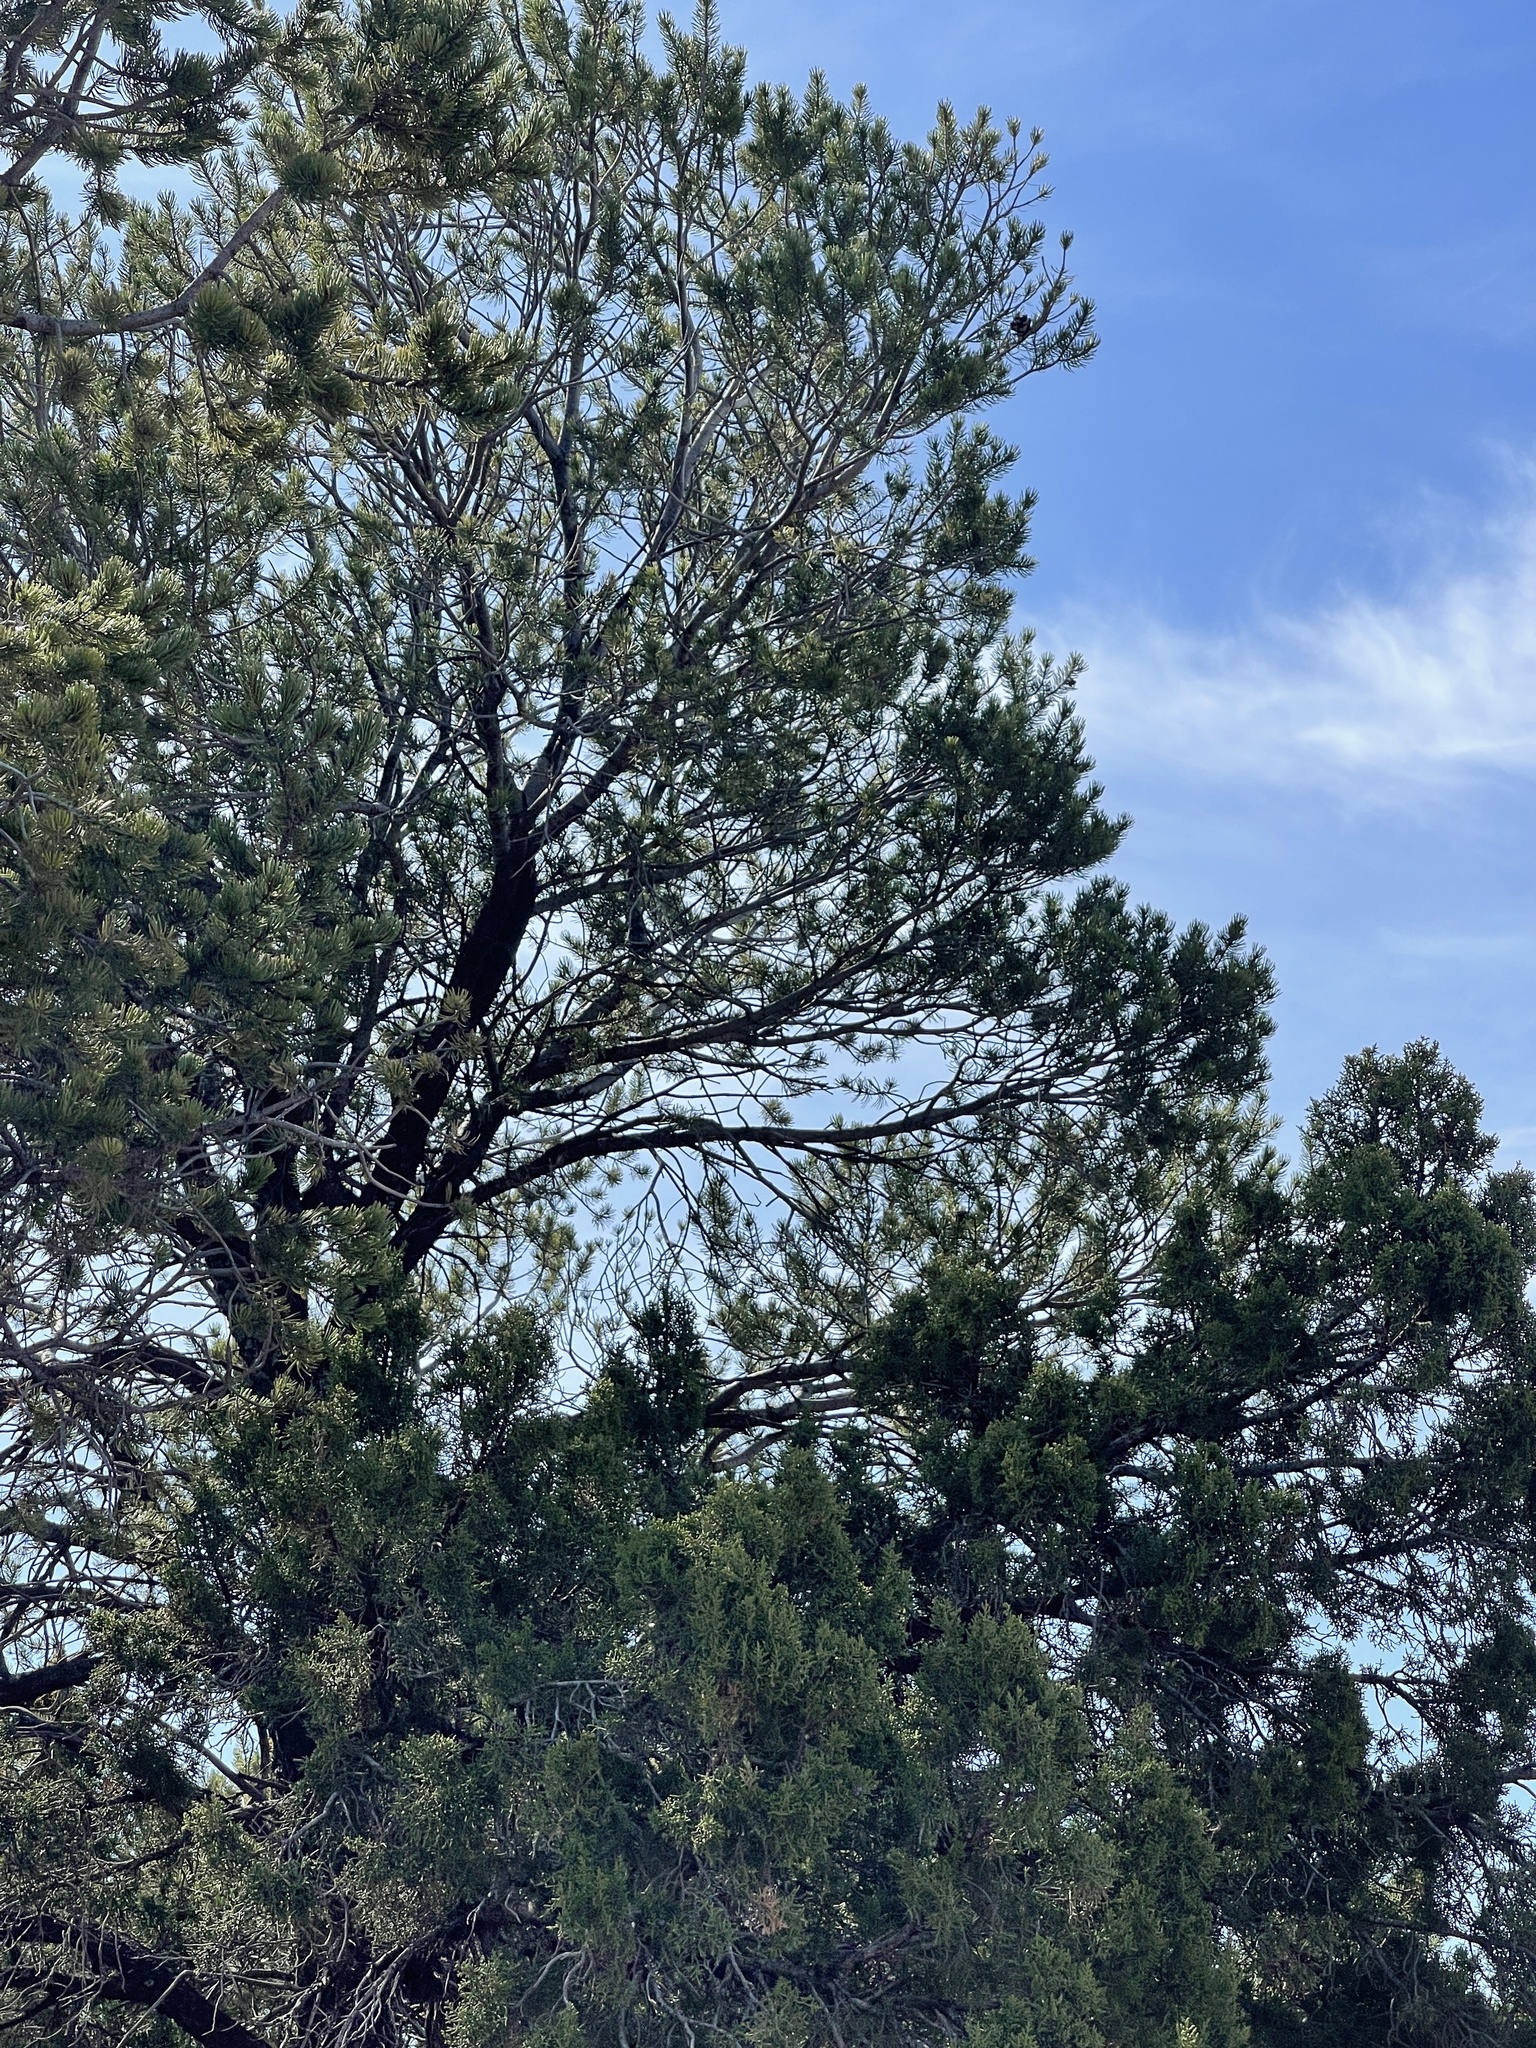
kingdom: Plantae
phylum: Tracheophyta
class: Pinopsida
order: Pinales
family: Pinaceae
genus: Pinus
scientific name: Pinus edulis
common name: Colorado pinyon
